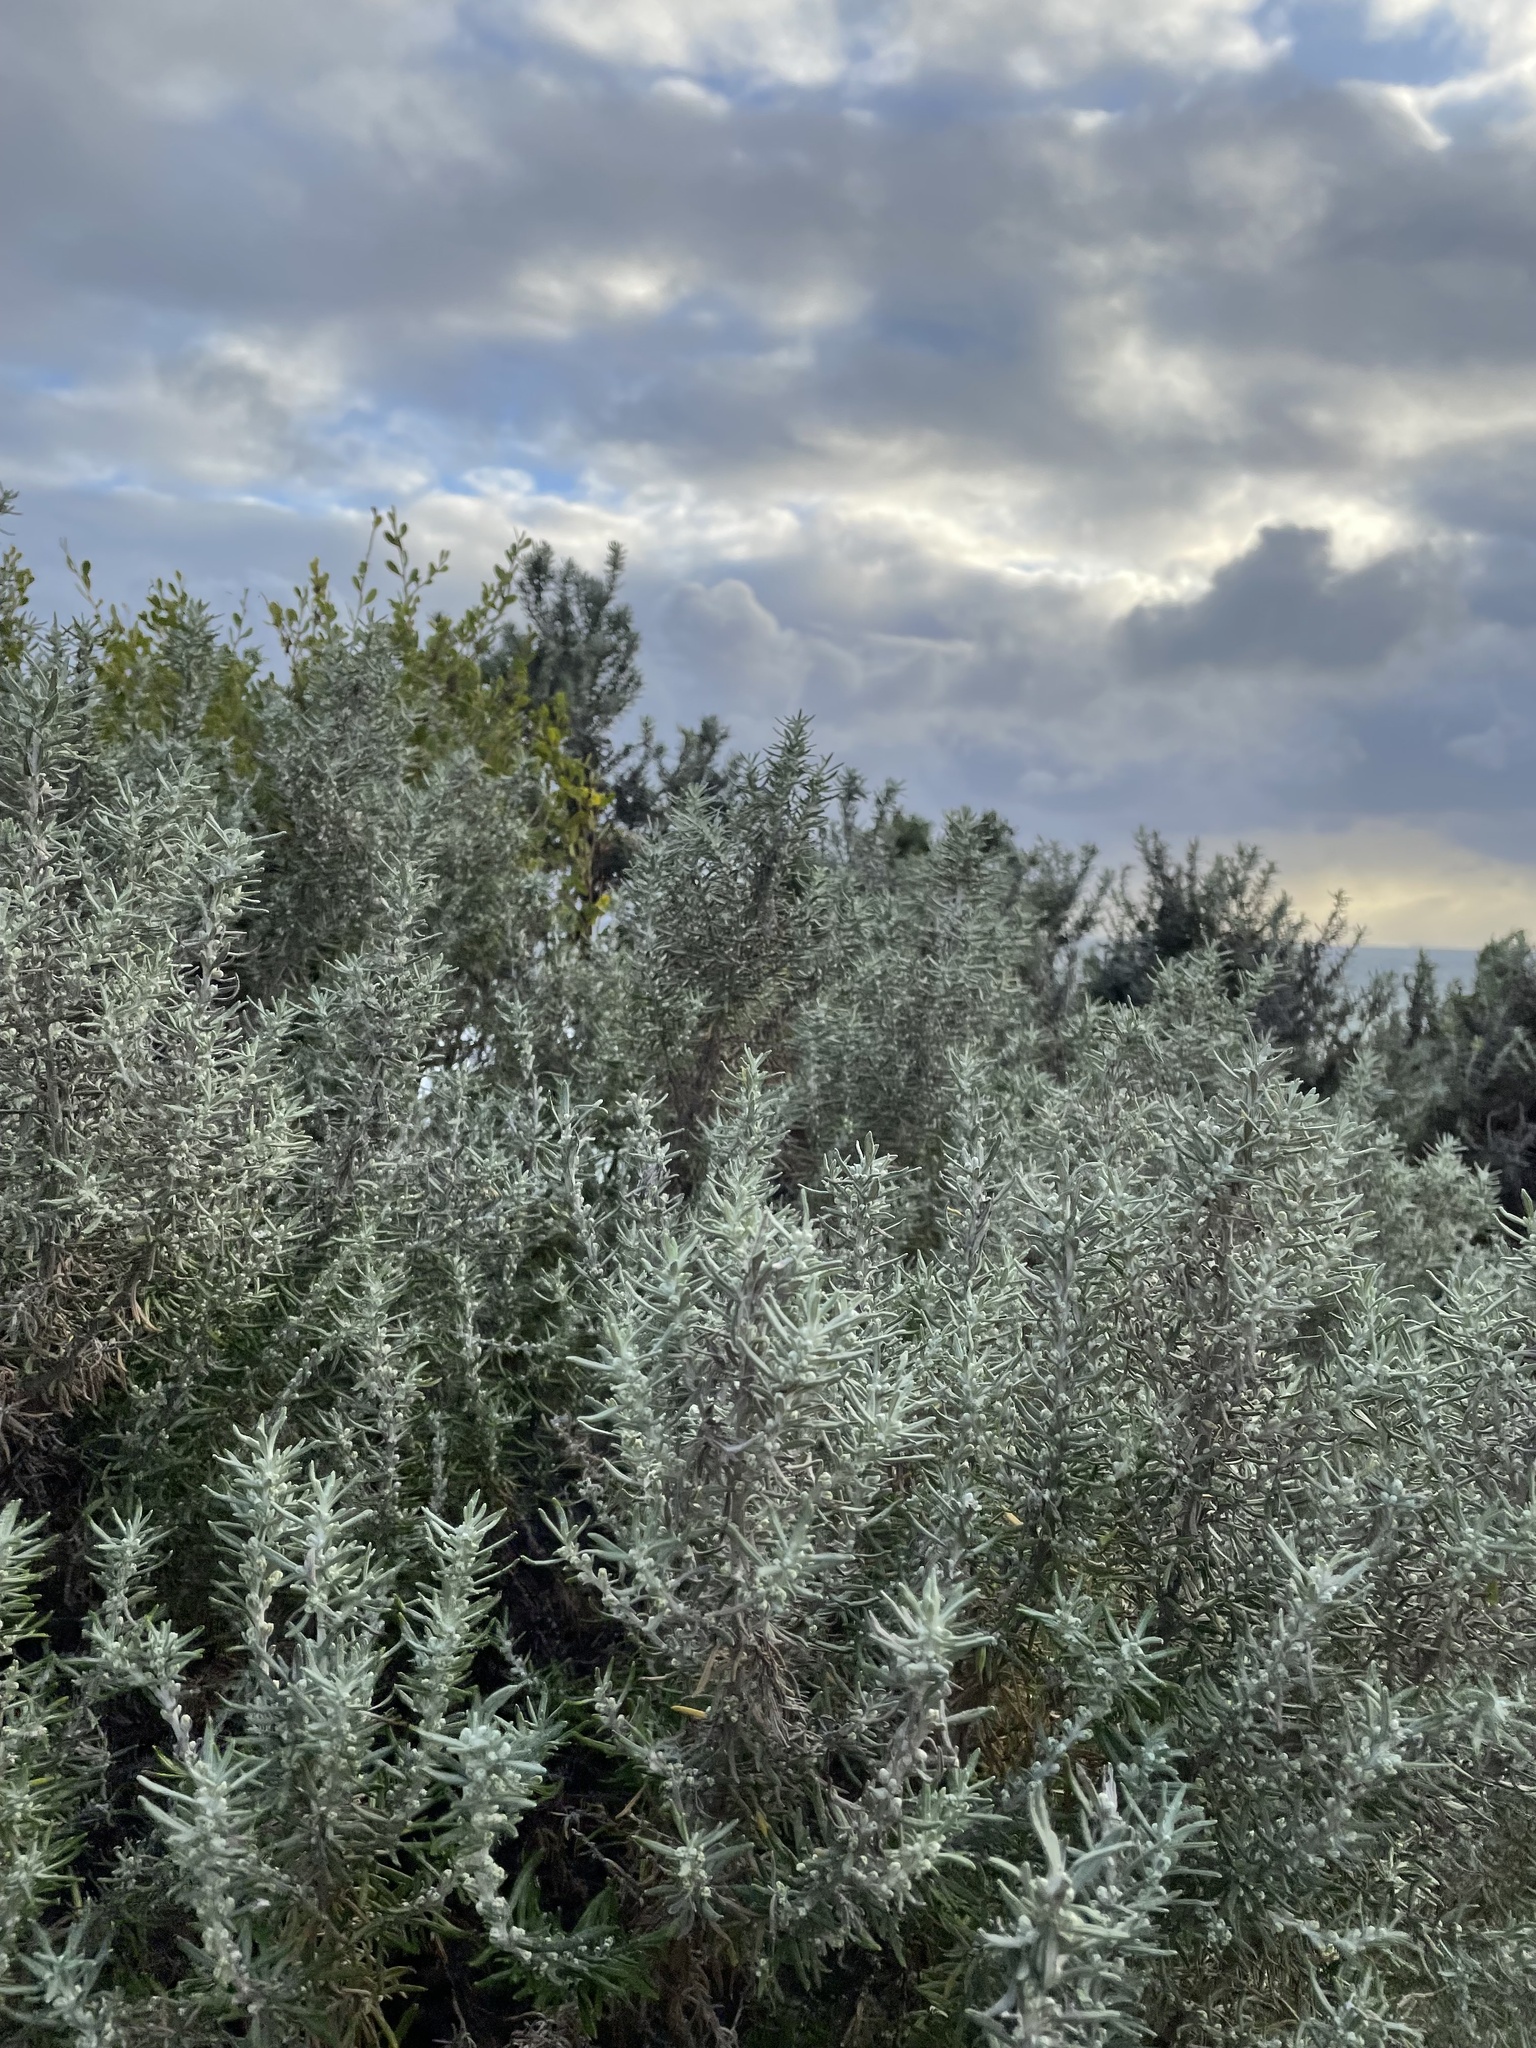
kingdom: Plantae
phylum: Tracheophyta
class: Magnoliopsida
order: Asterales
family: Asteraceae
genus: Olearia
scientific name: Olearia axillaris
